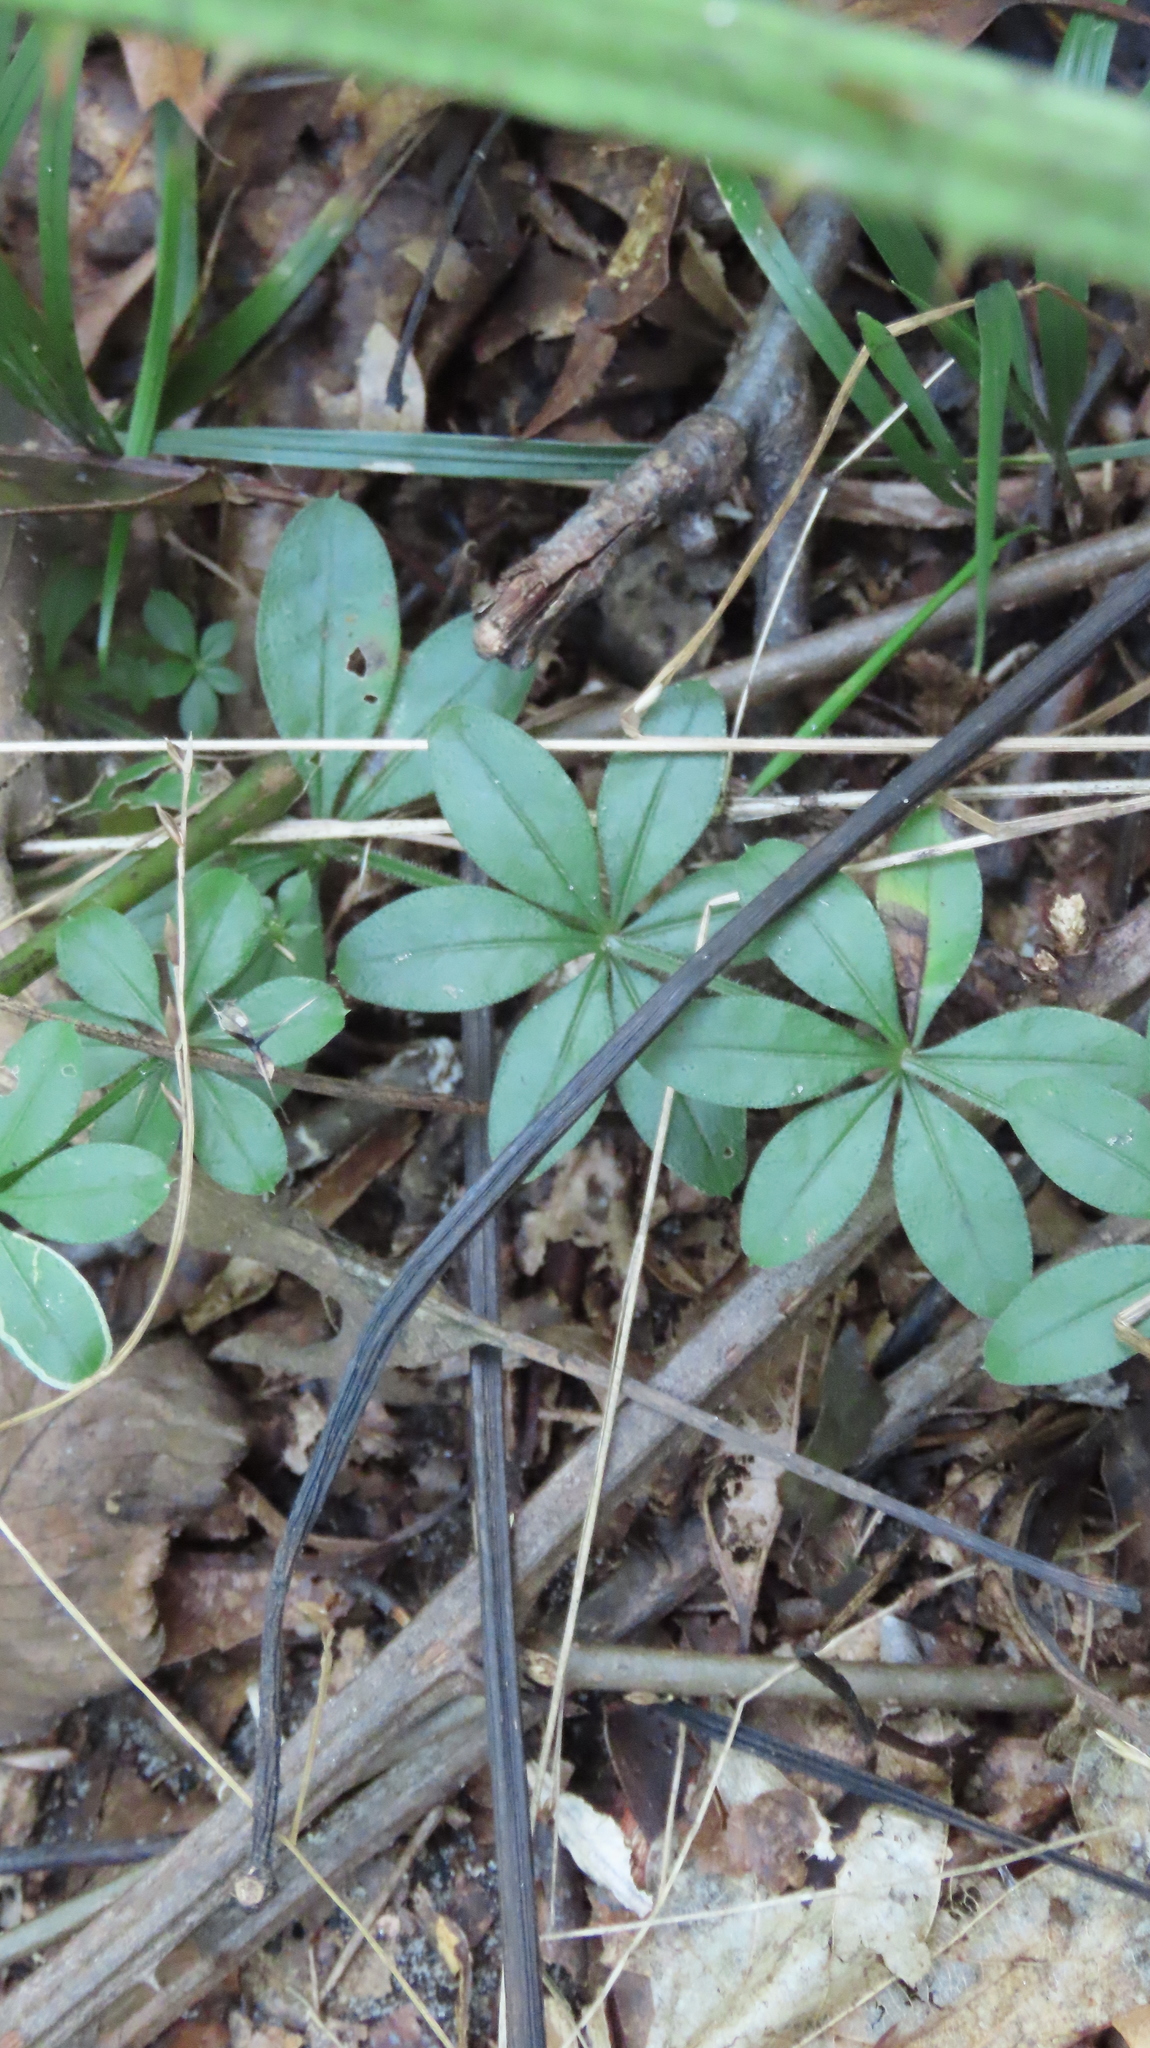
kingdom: Plantae
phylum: Tracheophyta
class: Magnoliopsida
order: Gentianales
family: Rubiaceae
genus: Galium
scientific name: Galium triflorum
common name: Fragrant bedstraw
